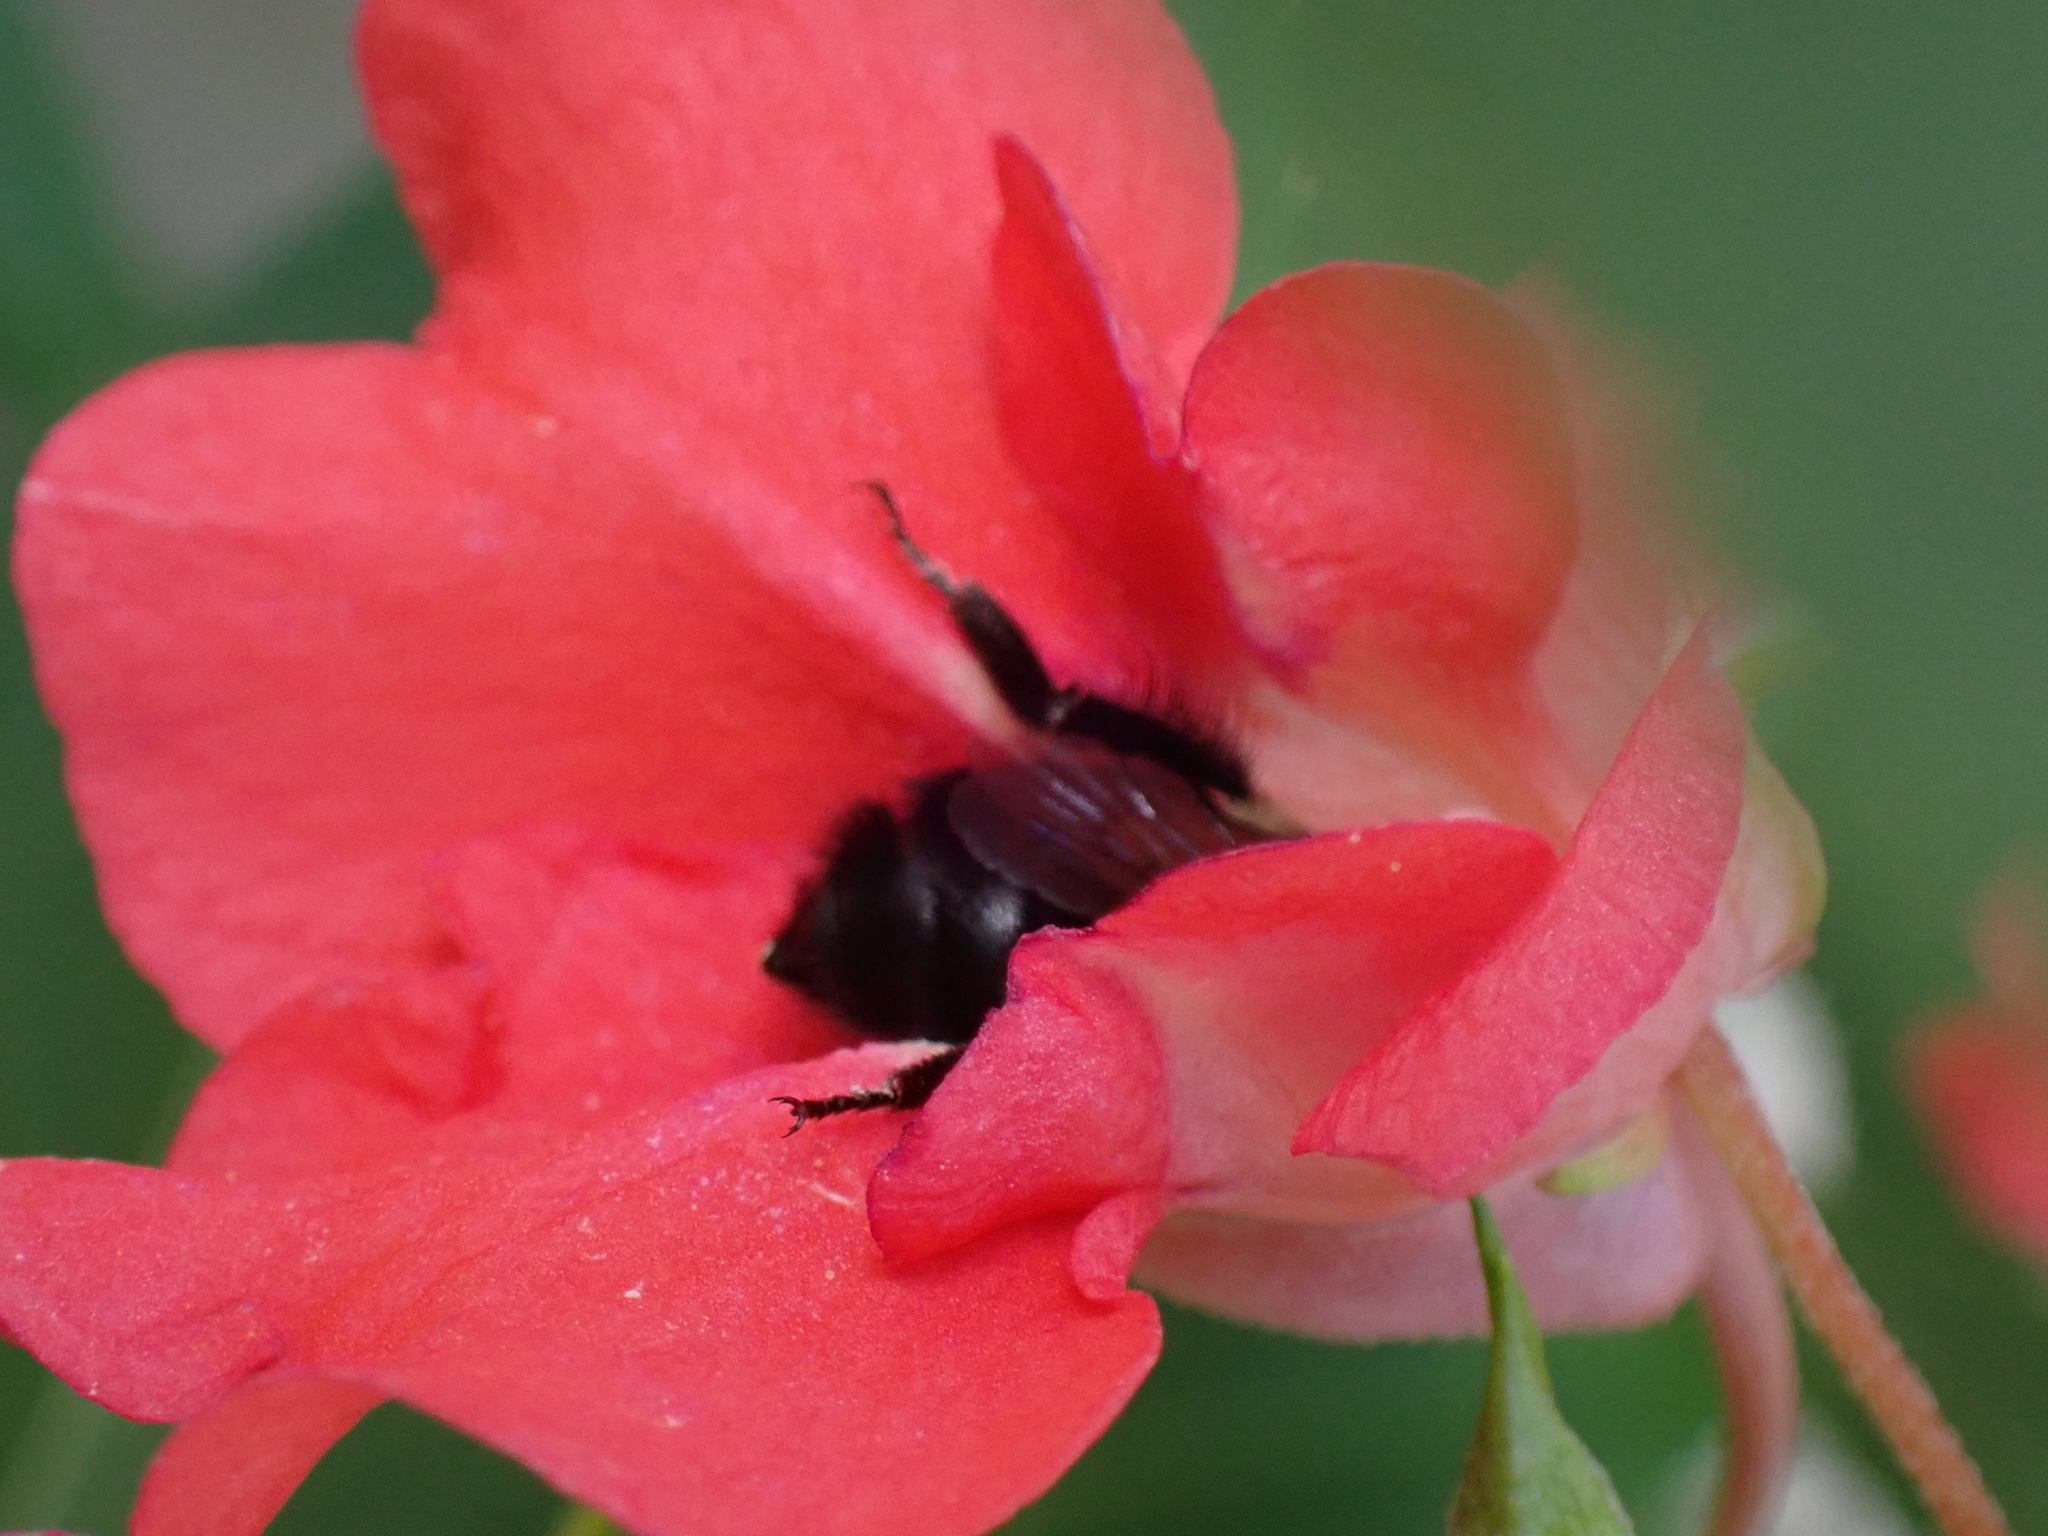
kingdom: Animalia
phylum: Arthropoda
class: Insecta
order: Hymenoptera
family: Apidae
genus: Bombus
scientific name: Bombus impatiens
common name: Common eastern bumble bee
